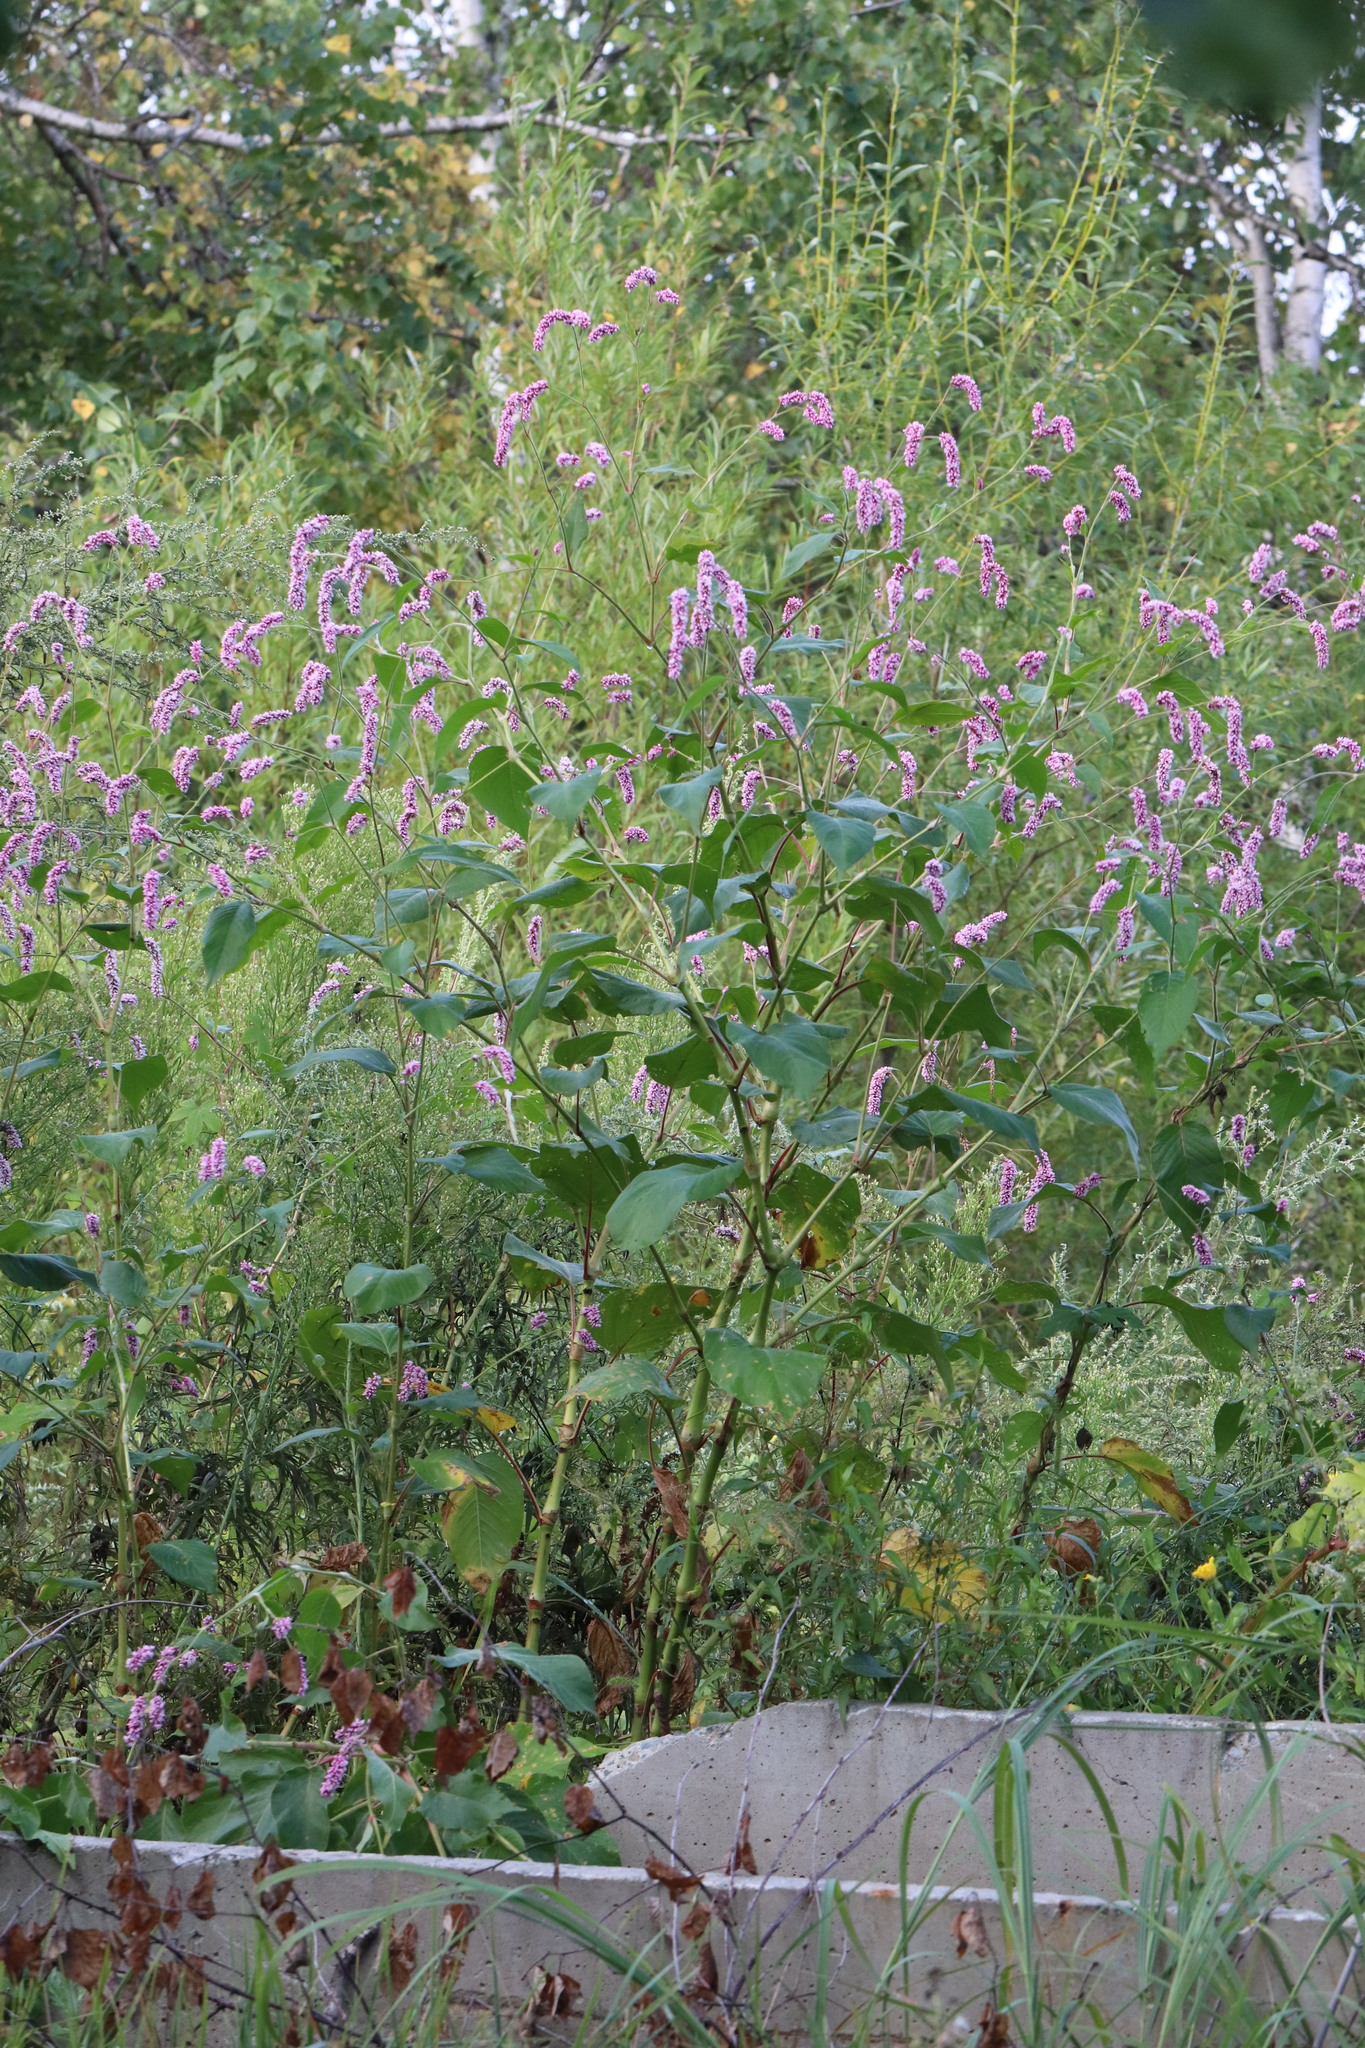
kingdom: Plantae
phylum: Tracheophyta
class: Magnoliopsida
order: Caryophyllales
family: Polygonaceae
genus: Persicaria
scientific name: Persicaria orientalis
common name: Kiss-me-over-the-garden-gate
